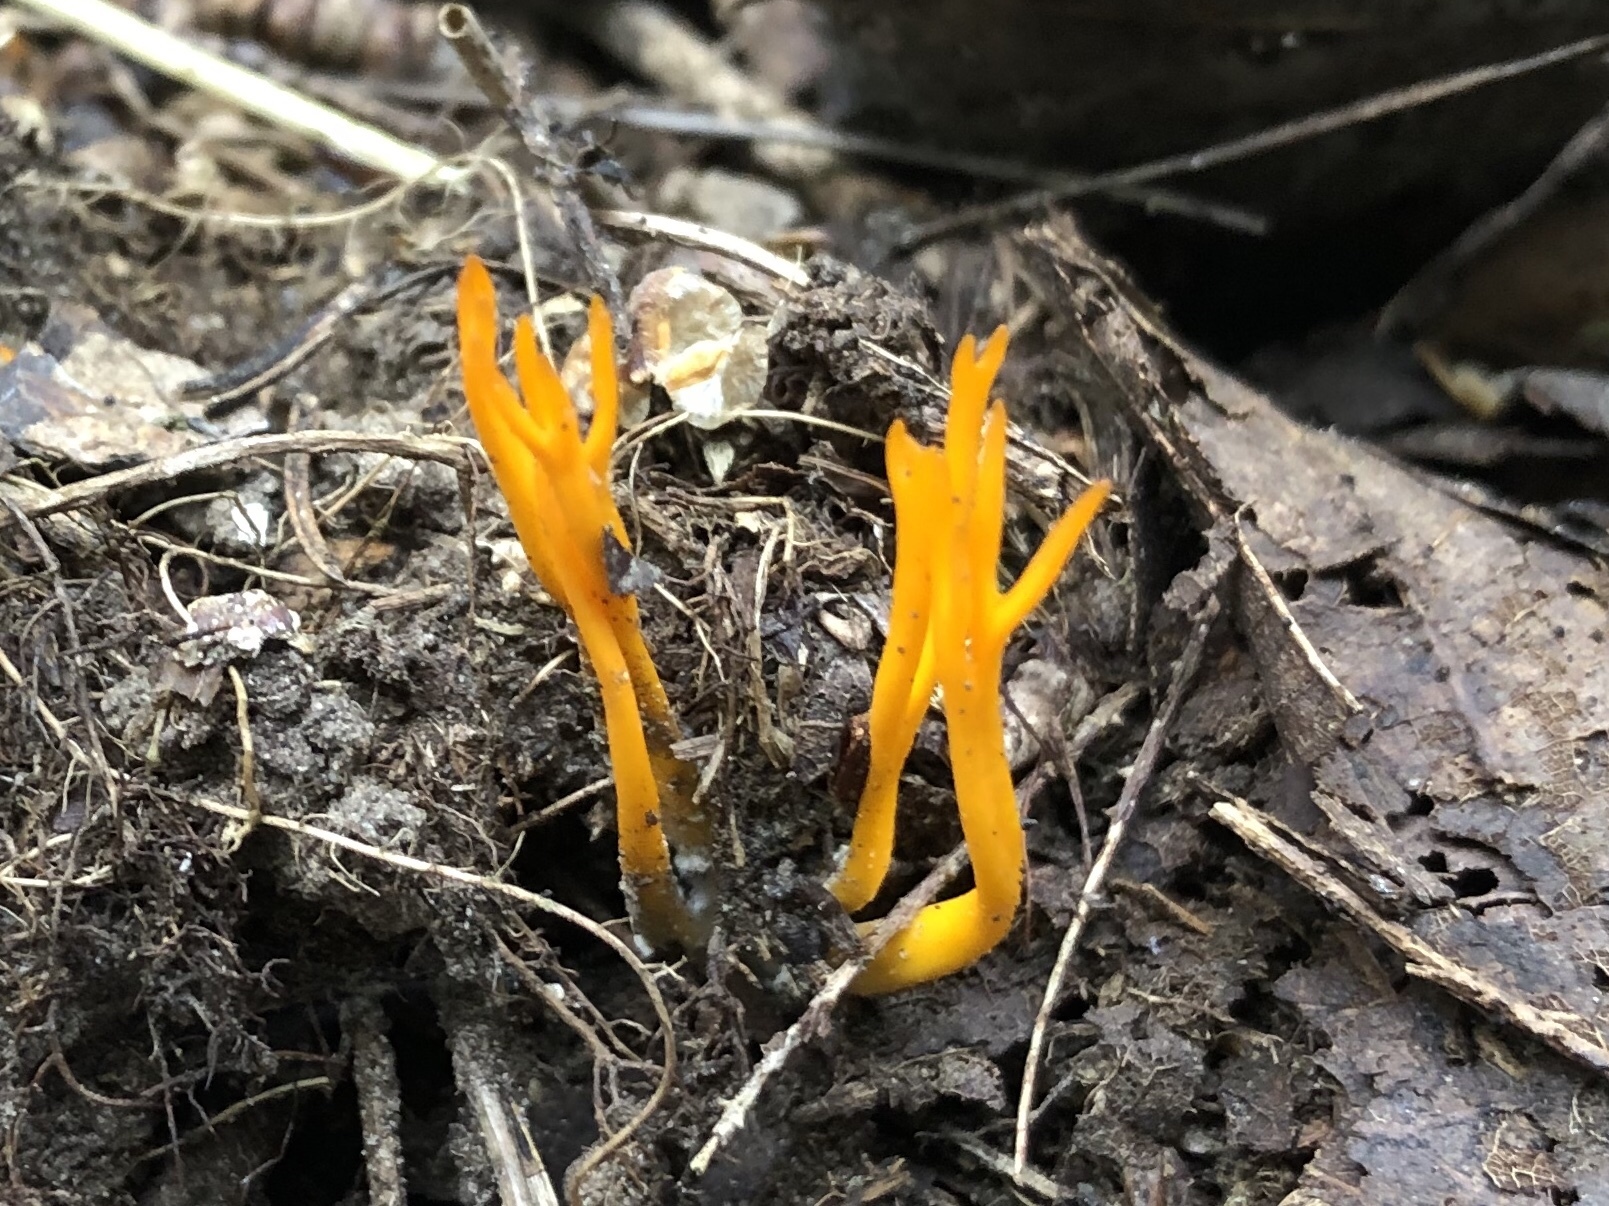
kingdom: Fungi
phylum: Basidiomycota
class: Dacrymycetes
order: Dacrymycetales
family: Dacrymycetaceae
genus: Calocera
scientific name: Calocera viscosa
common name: Yellow stagshorn
